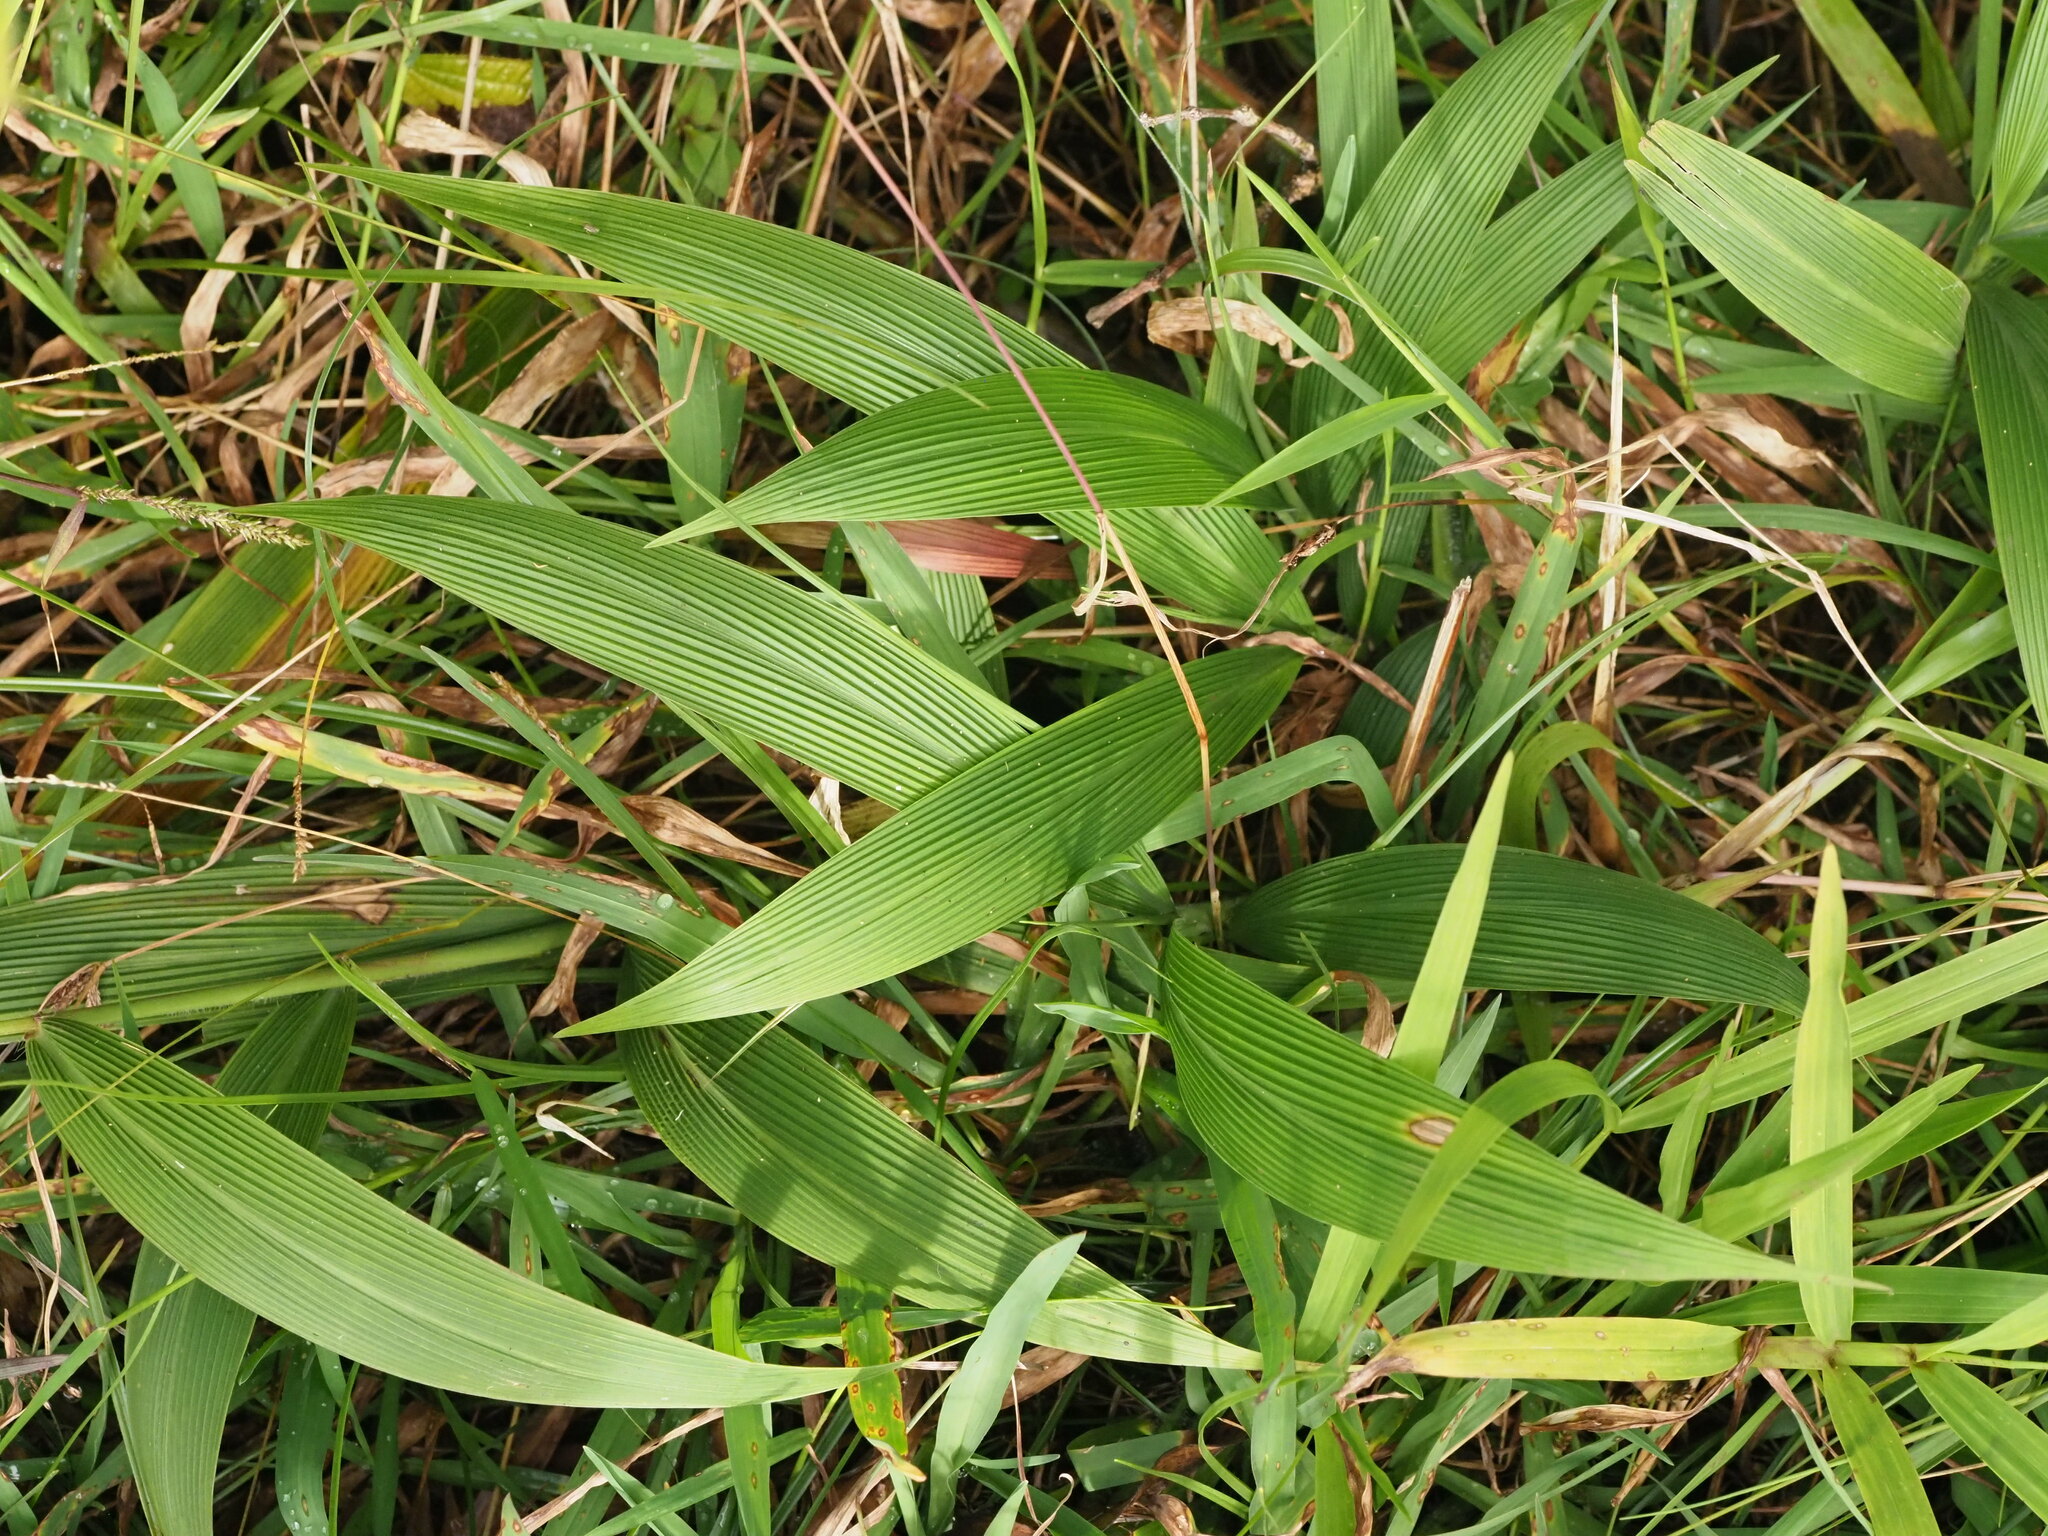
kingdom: Plantae
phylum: Tracheophyta
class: Liliopsida
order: Poales
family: Poaceae
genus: Setaria
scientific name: Setaria palmifolia
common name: Broadleaved bristlegrass
